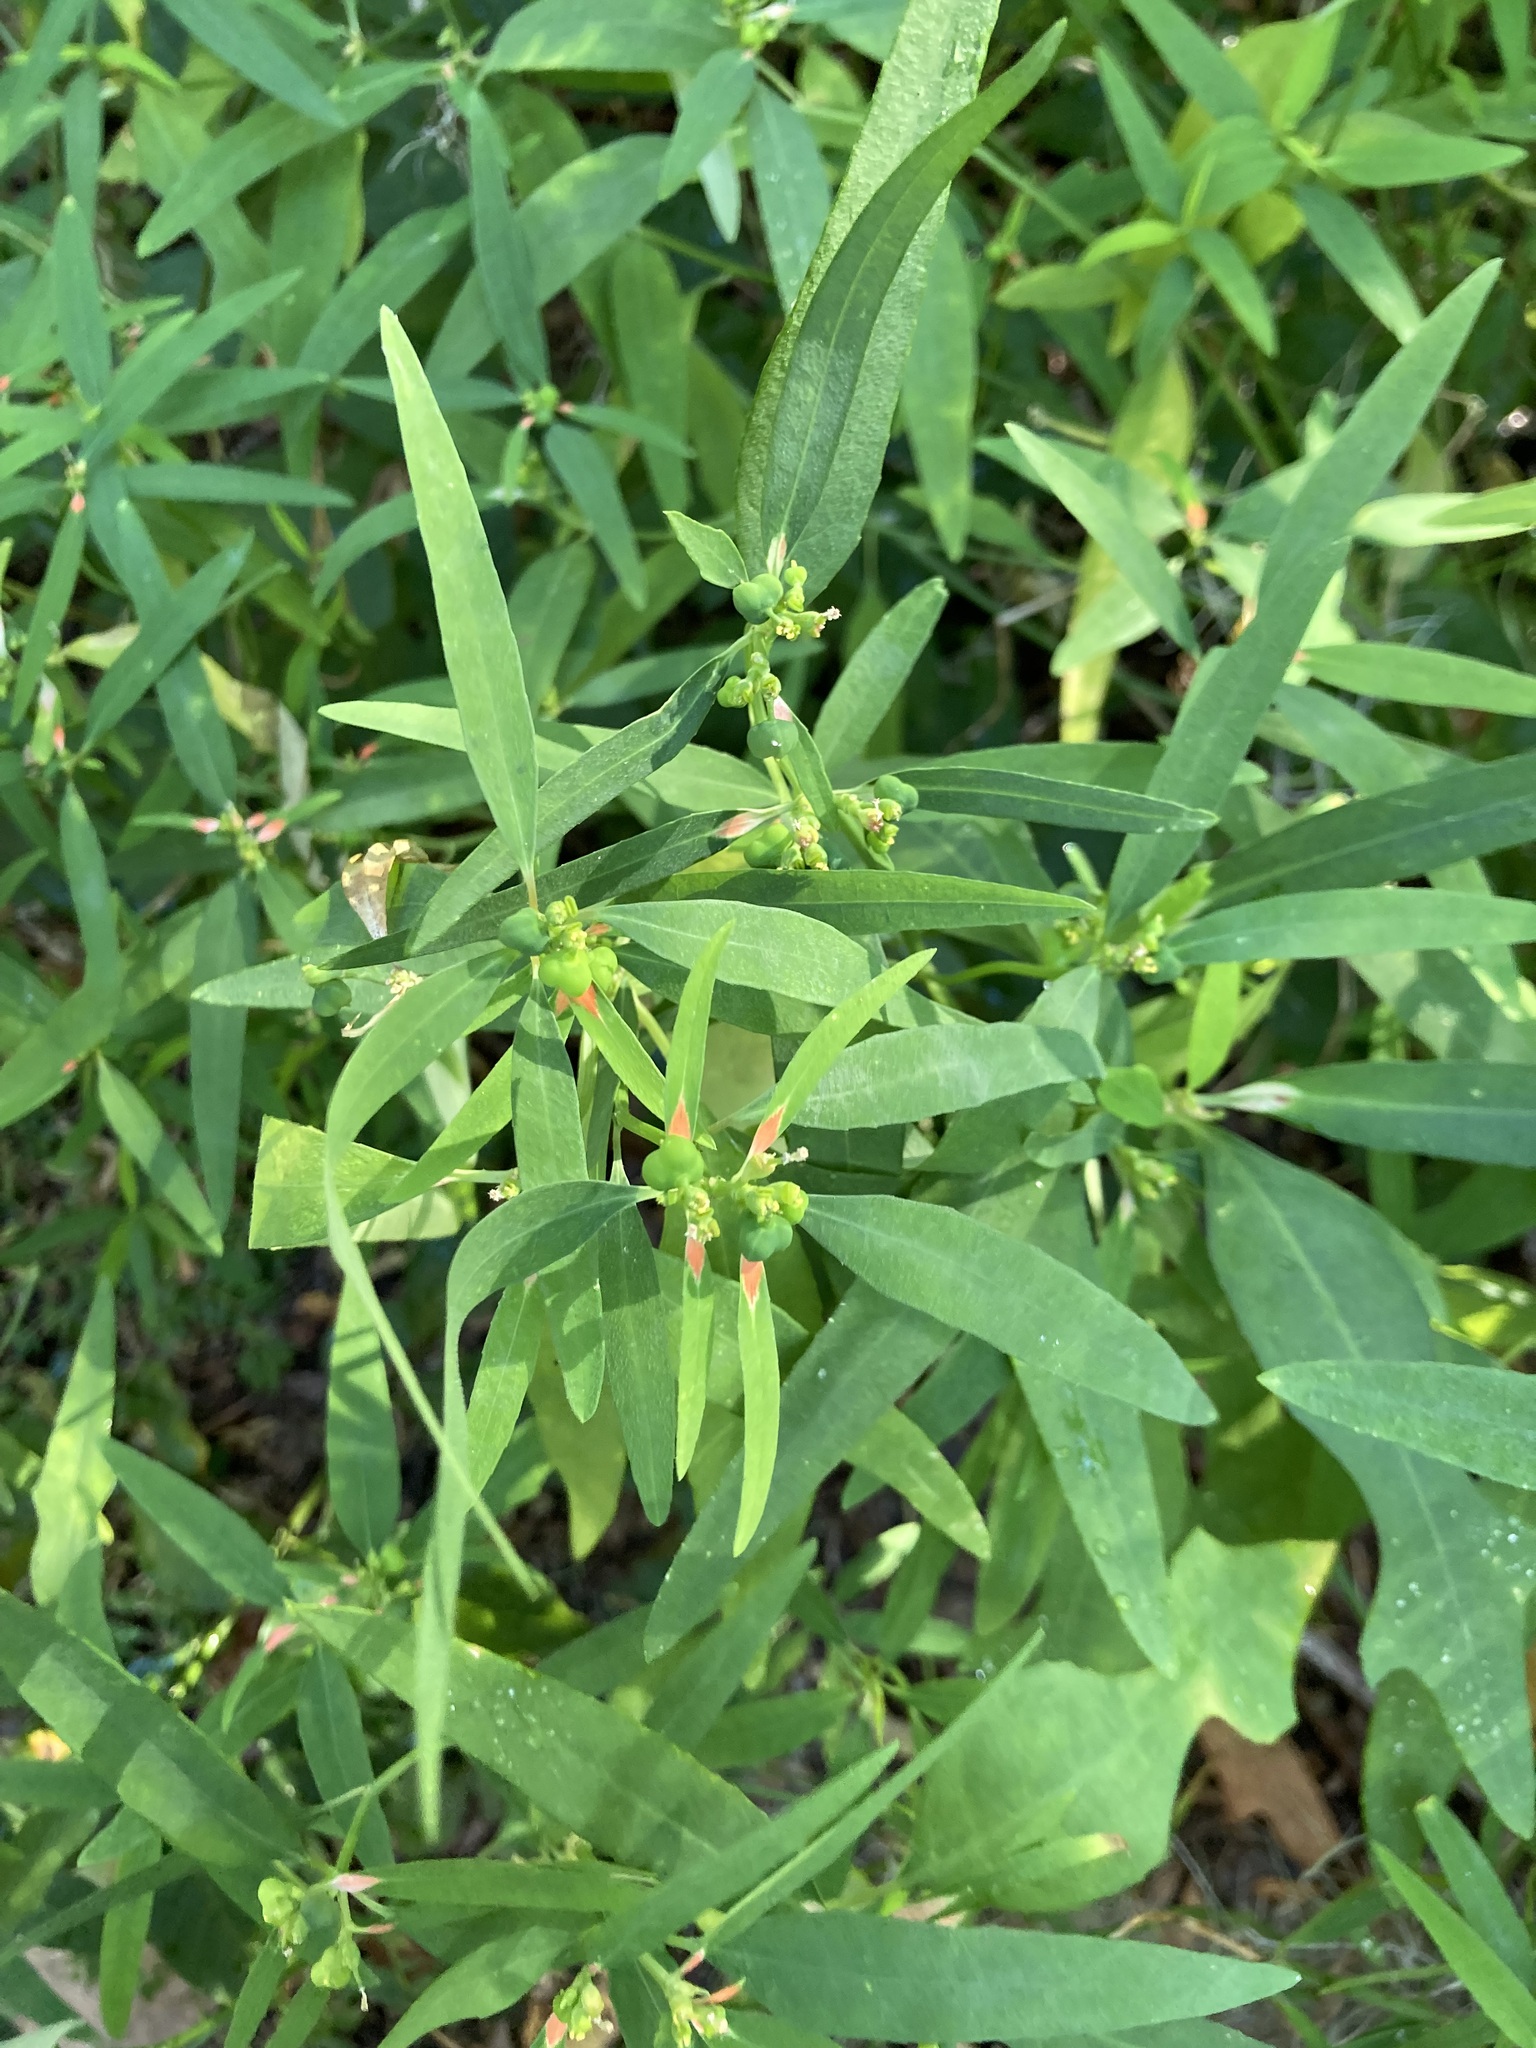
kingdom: Plantae
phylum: Tracheophyta
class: Magnoliopsida
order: Malpighiales
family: Euphorbiaceae
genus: Euphorbia
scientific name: Euphorbia heterophylla
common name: Mexican fireplant
